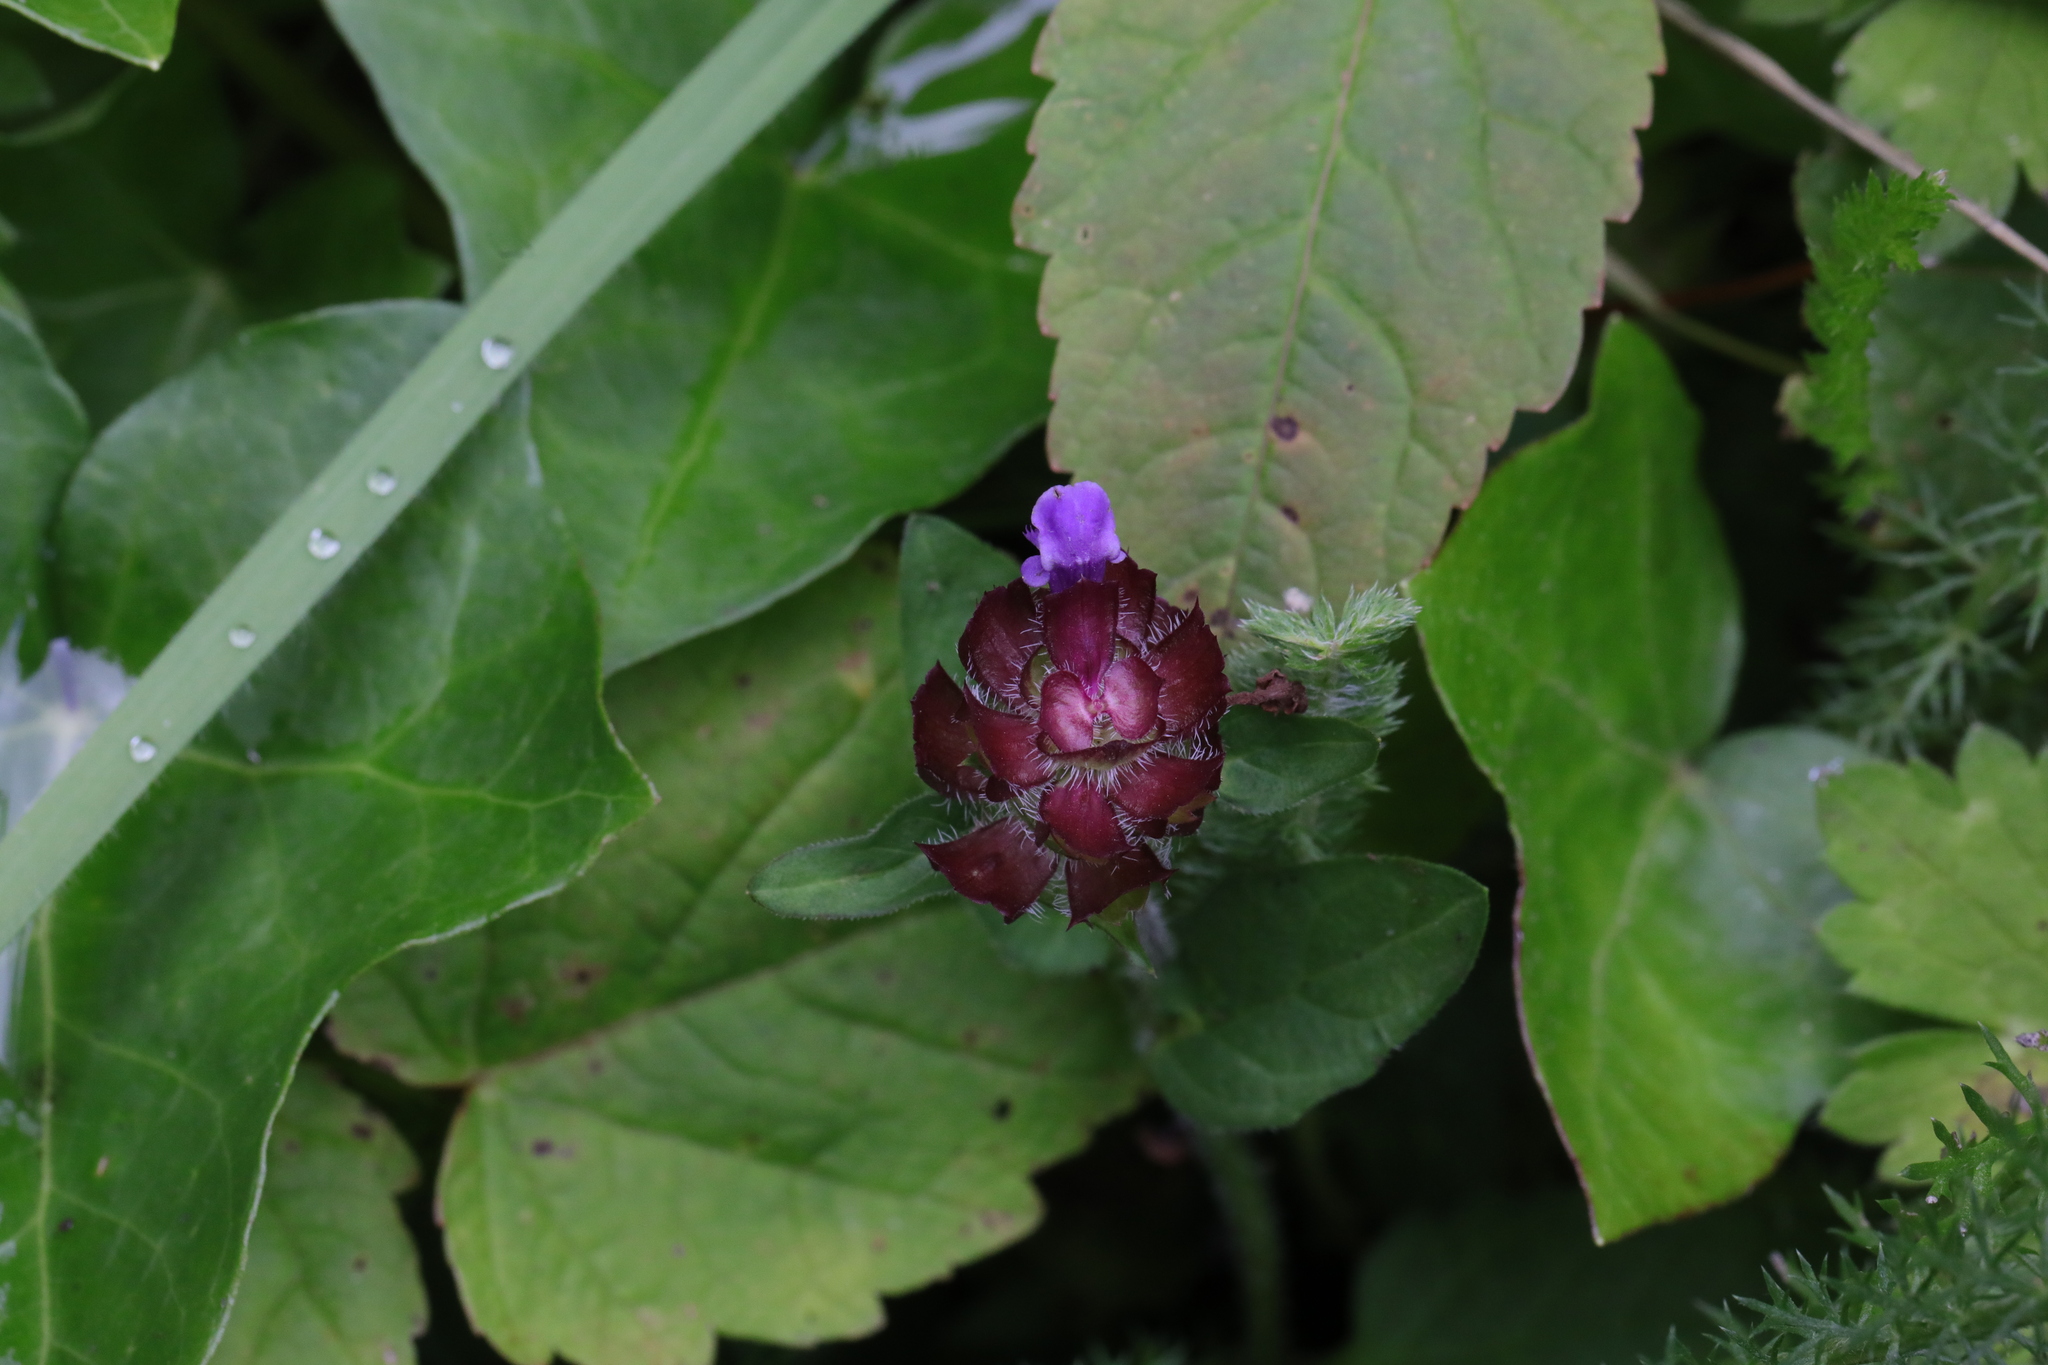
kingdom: Plantae
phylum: Tracheophyta
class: Magnoliopsida
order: Lamiales
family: Lamiaceae
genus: Prunella
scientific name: Prunella vulgaris
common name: Heal-all
